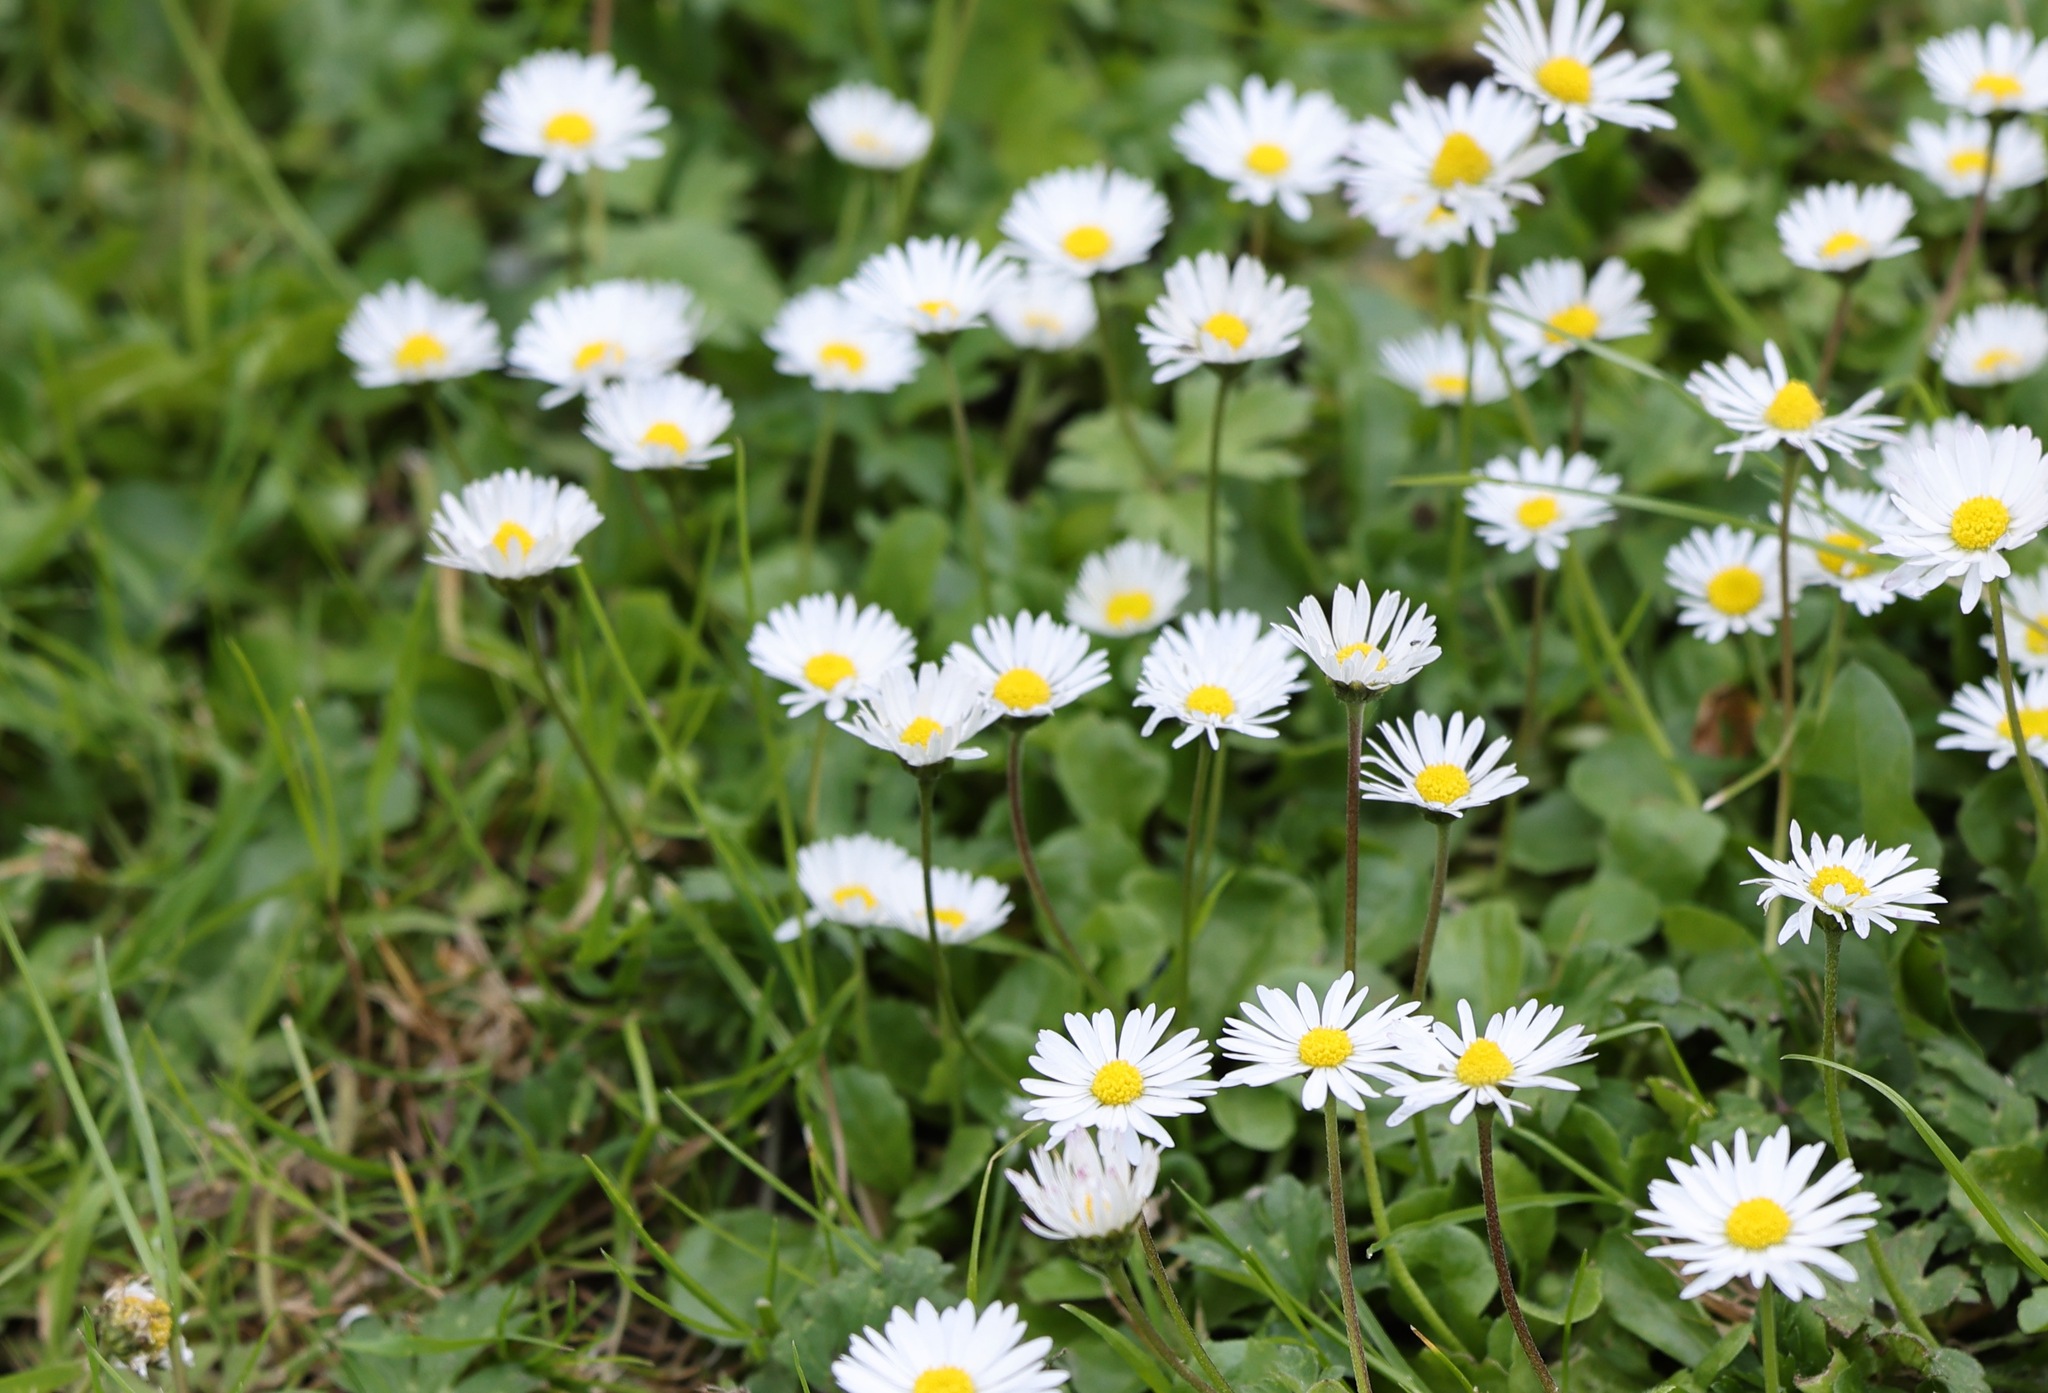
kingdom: Plantae
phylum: Tracheophyta
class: Magnoliopsida
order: Asterales
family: Asteraceae
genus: Bellis
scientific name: Bellis perennis
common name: Lawndaisy
